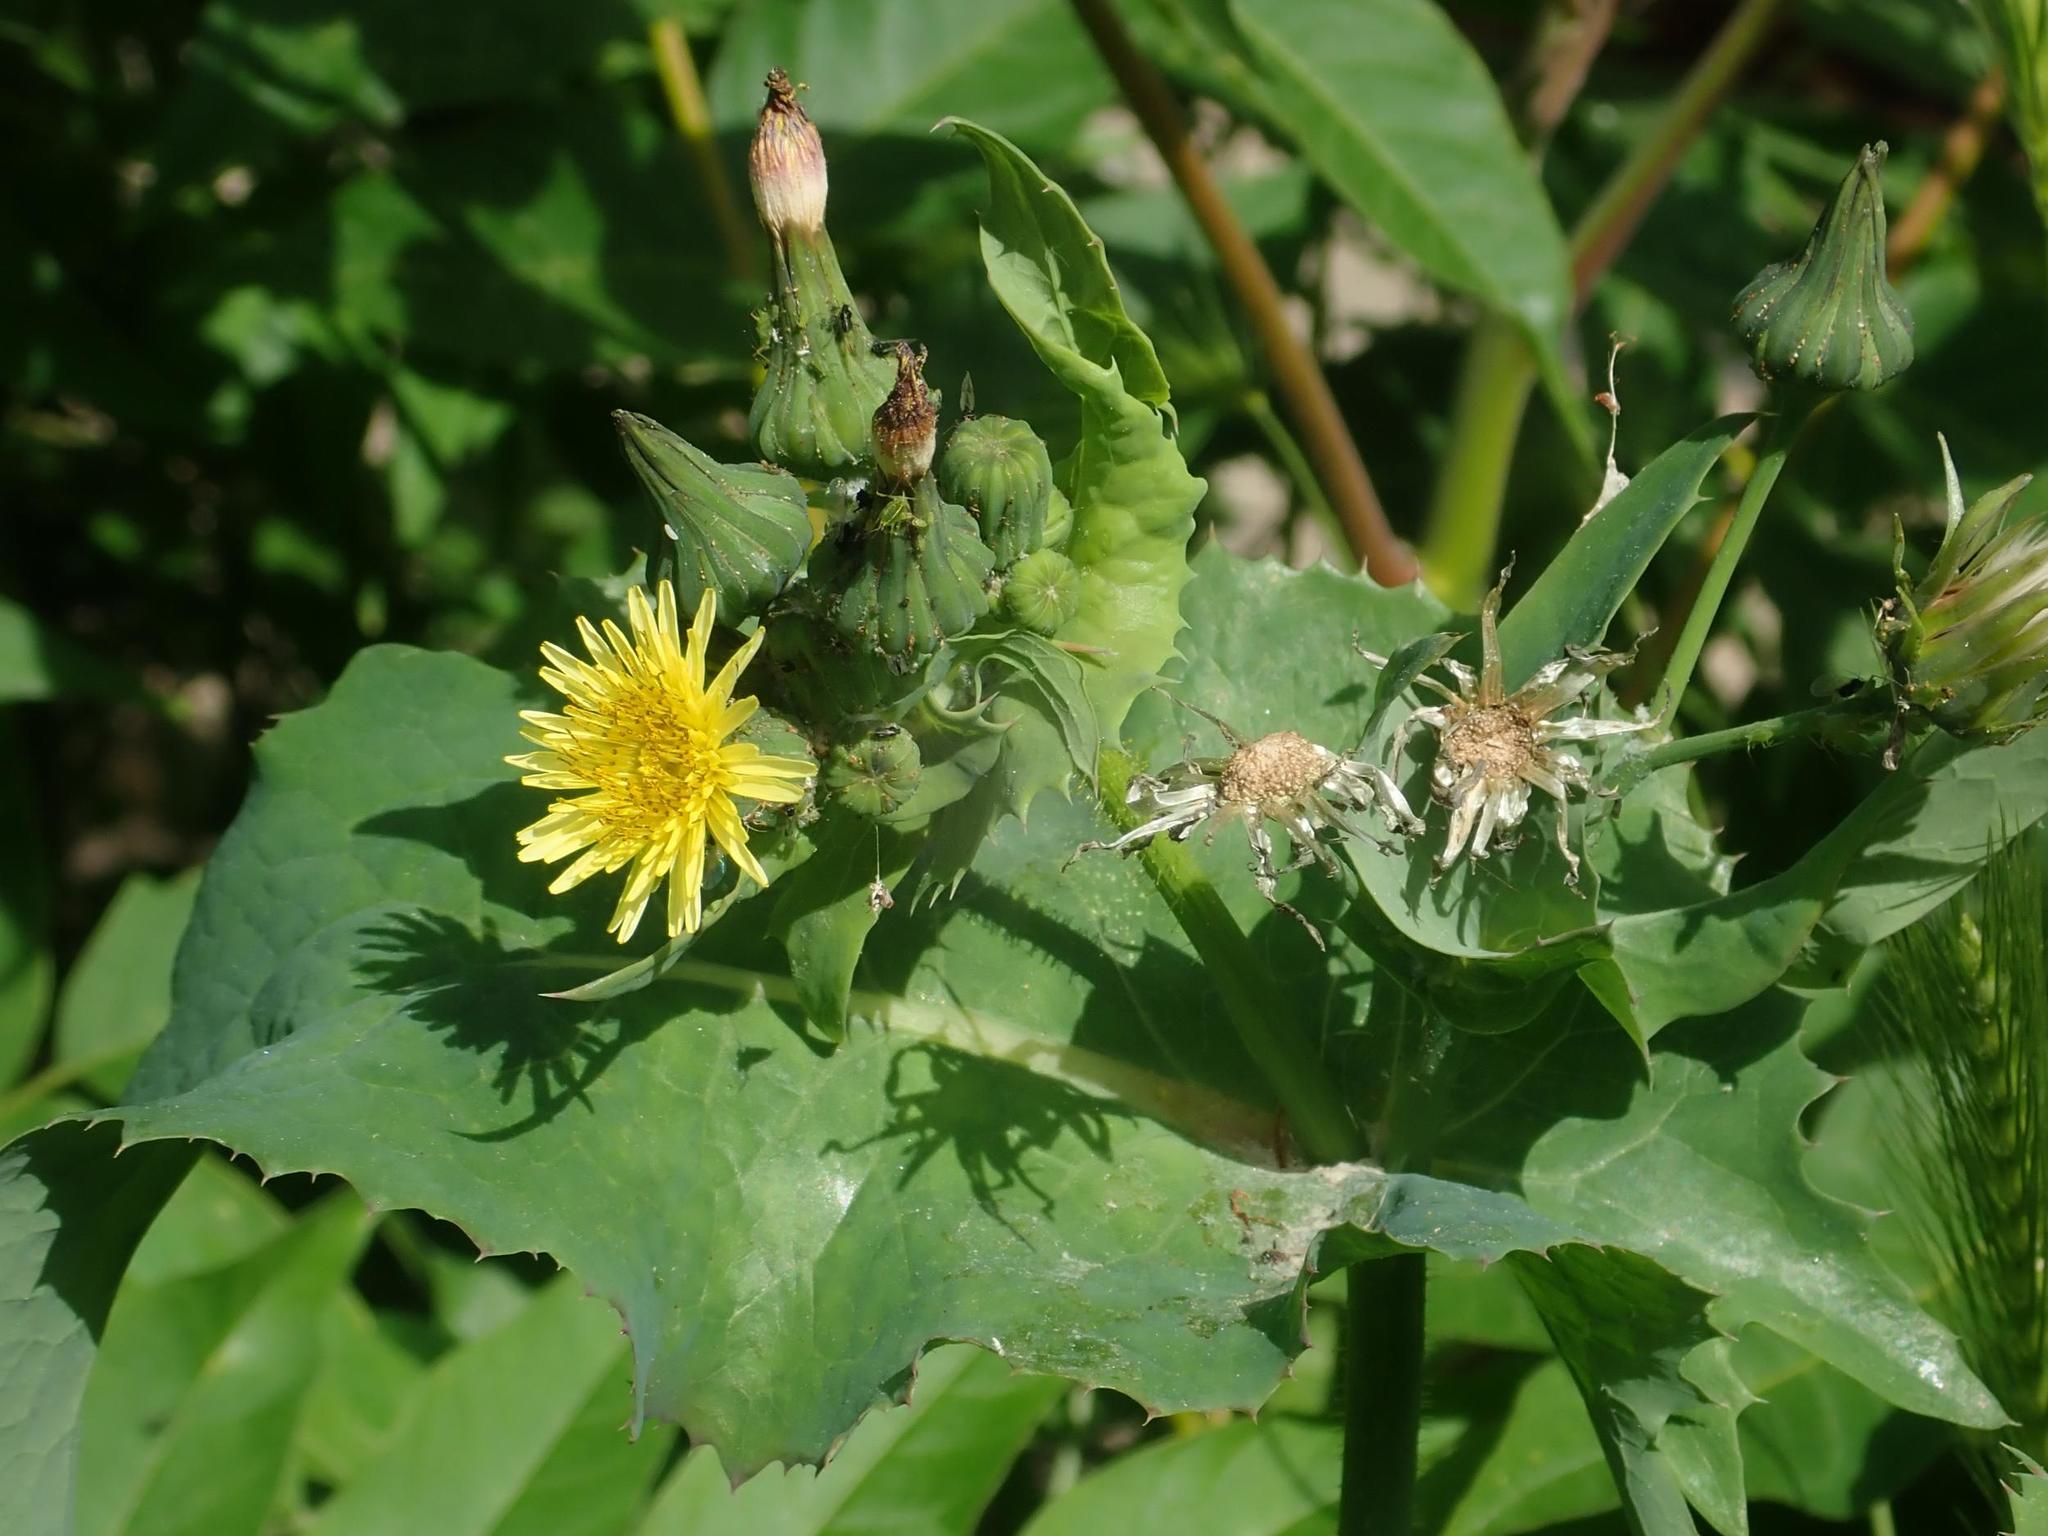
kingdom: Plantae
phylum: Tracheophyta
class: Magnoliopsida
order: Asterales
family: Asteraceae
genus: Sonchus
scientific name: Sonchus oleraceus
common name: Common sowthistle
